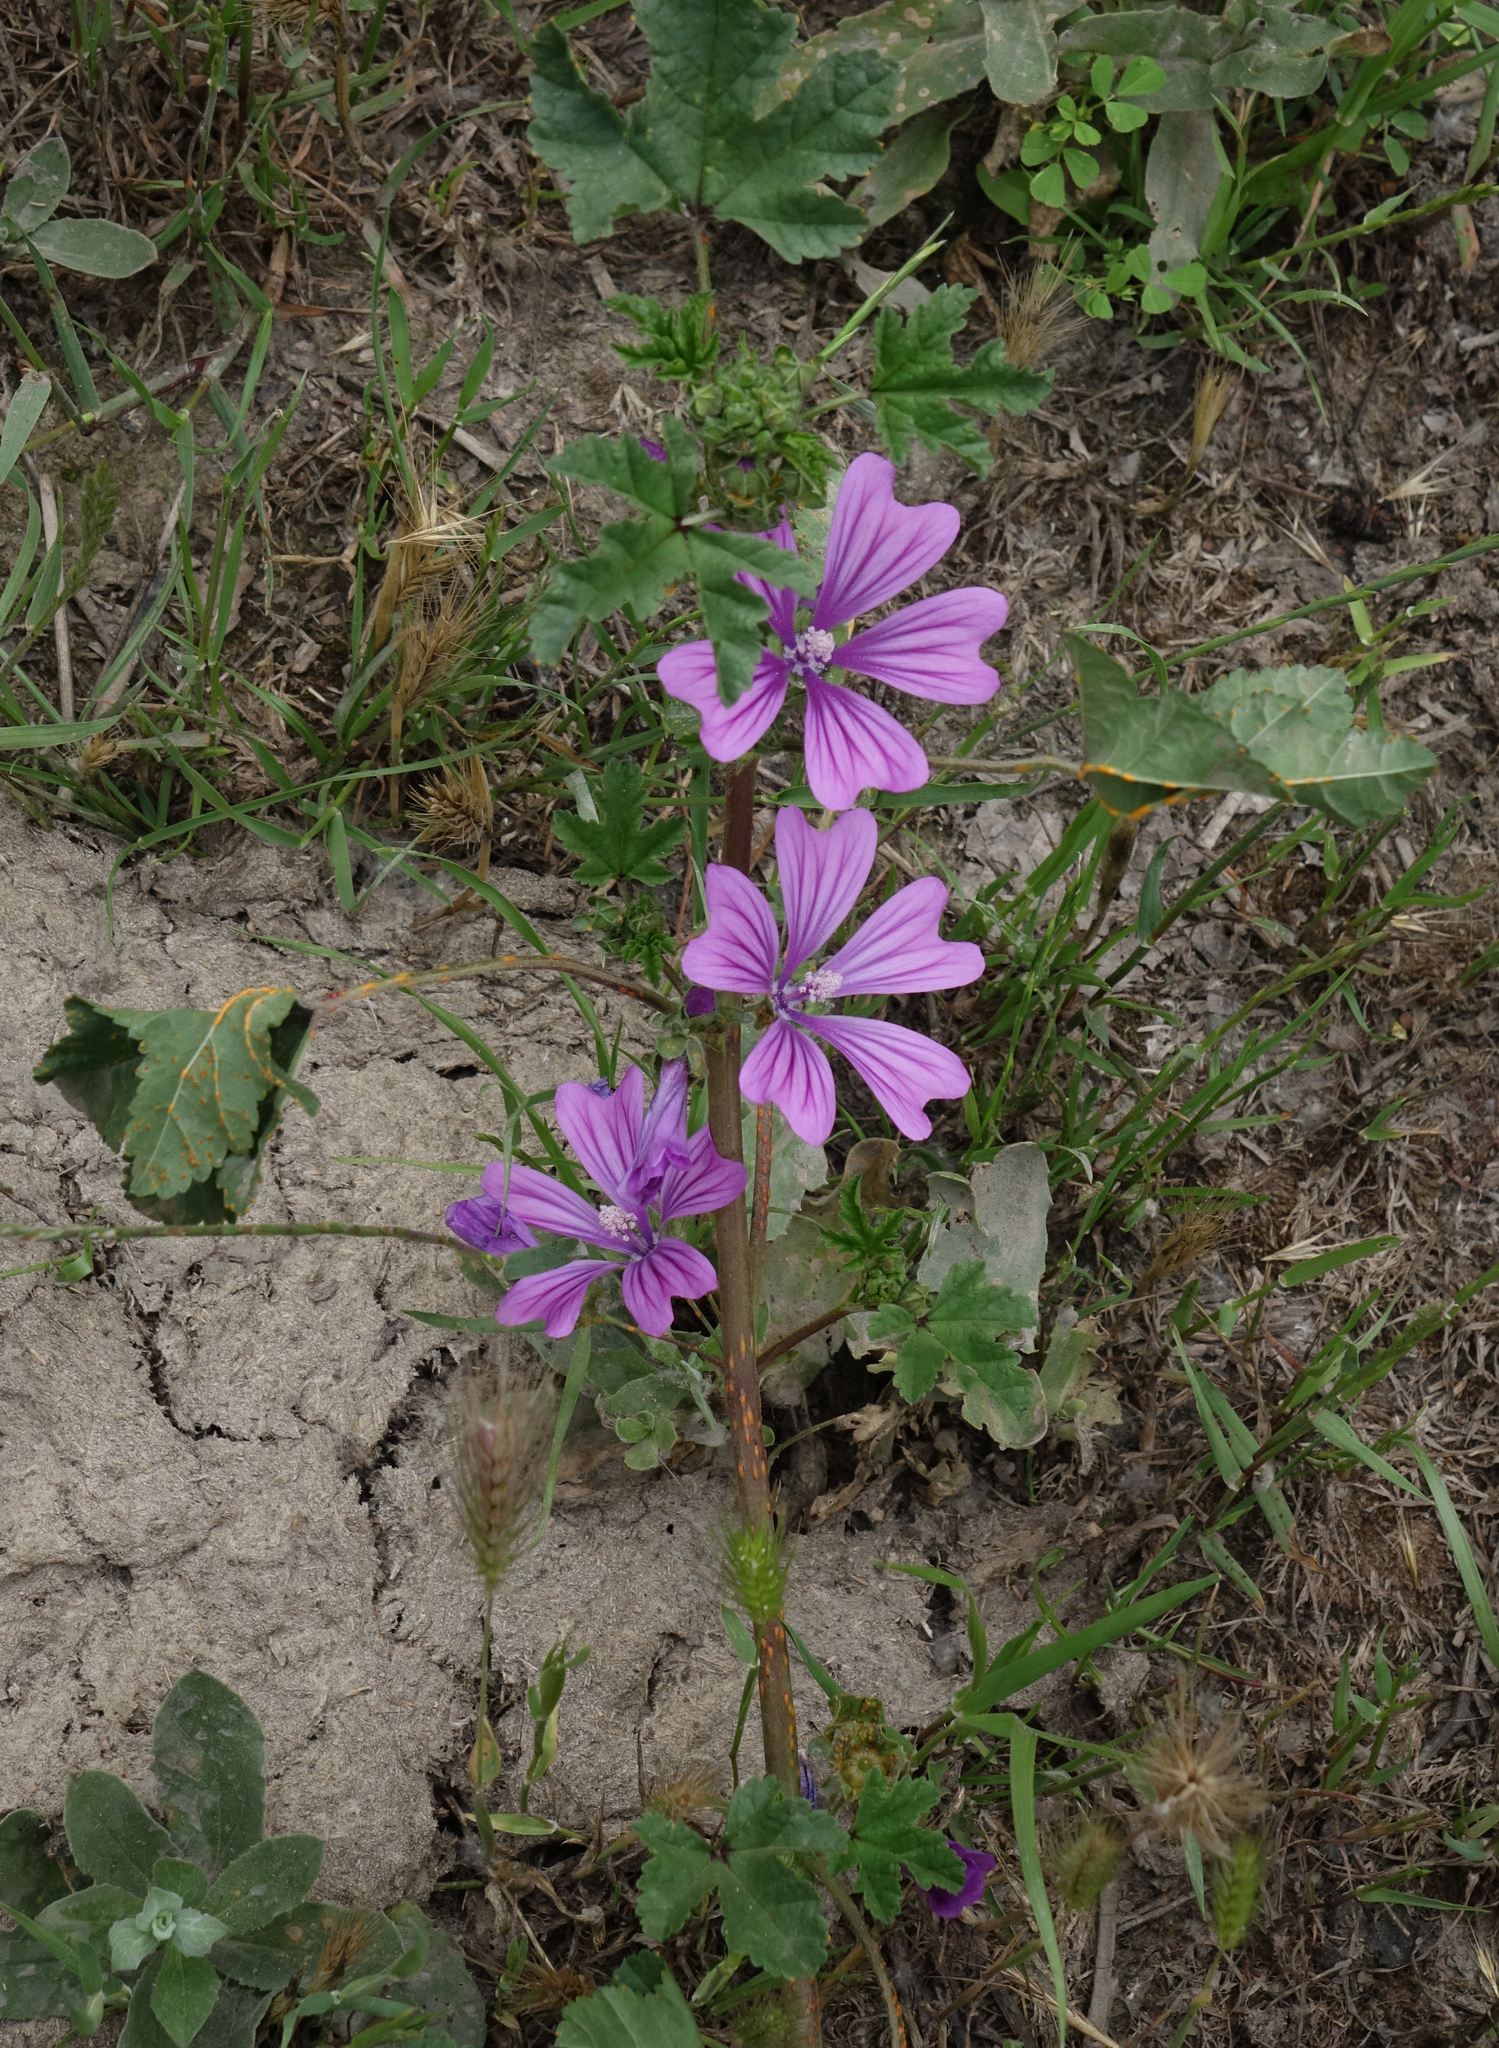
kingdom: Plantae
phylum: Tracheophyta
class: Magnoliopsida
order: Malvales
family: Malvaceae
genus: Malva
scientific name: Malva sylvestris
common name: Common mallow
